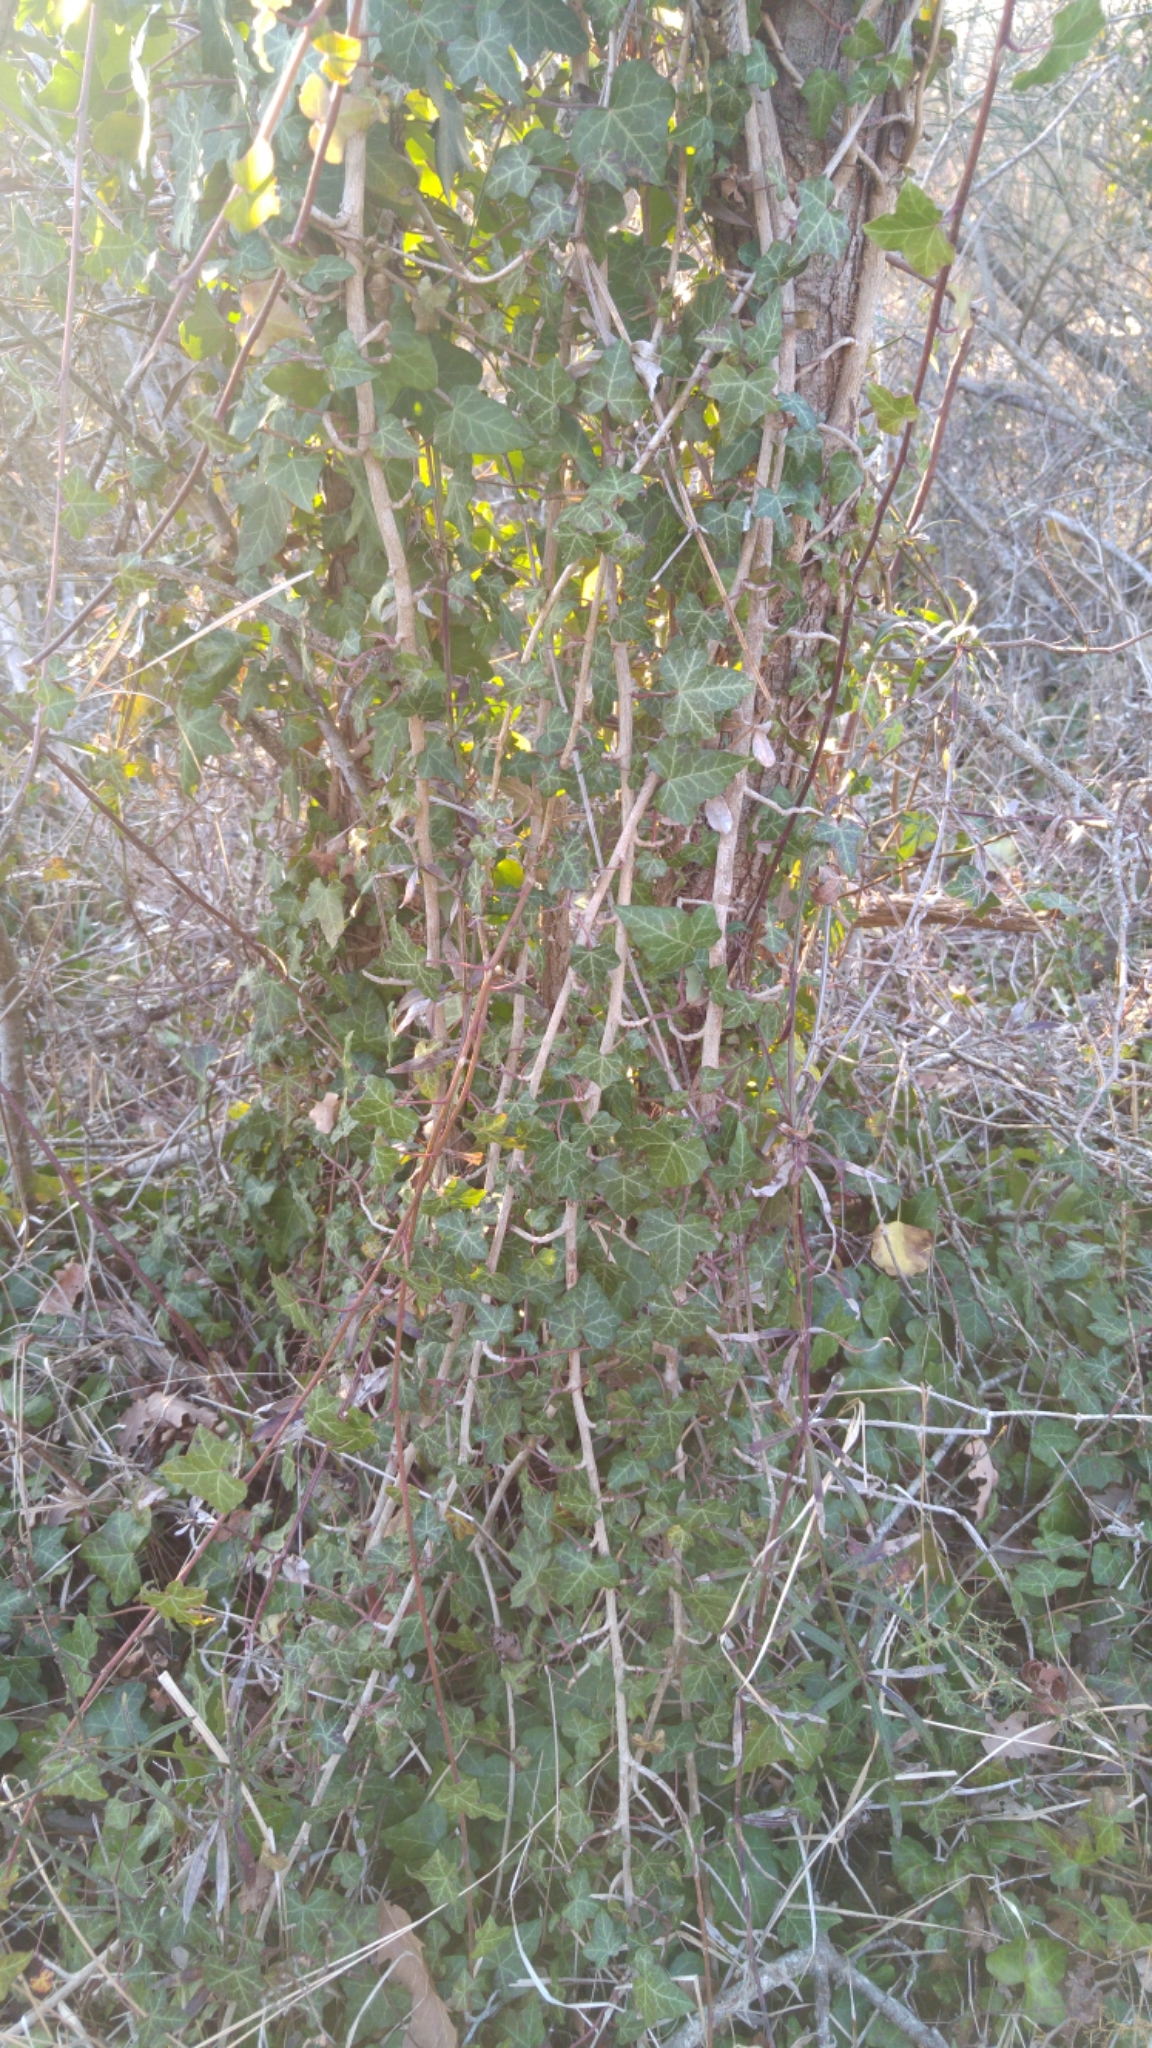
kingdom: Plantae
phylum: Tracheophyta
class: Magnoliopsida
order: Apiales
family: Araliaceae
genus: Hedera
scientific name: Hedera helix
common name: Ivy
